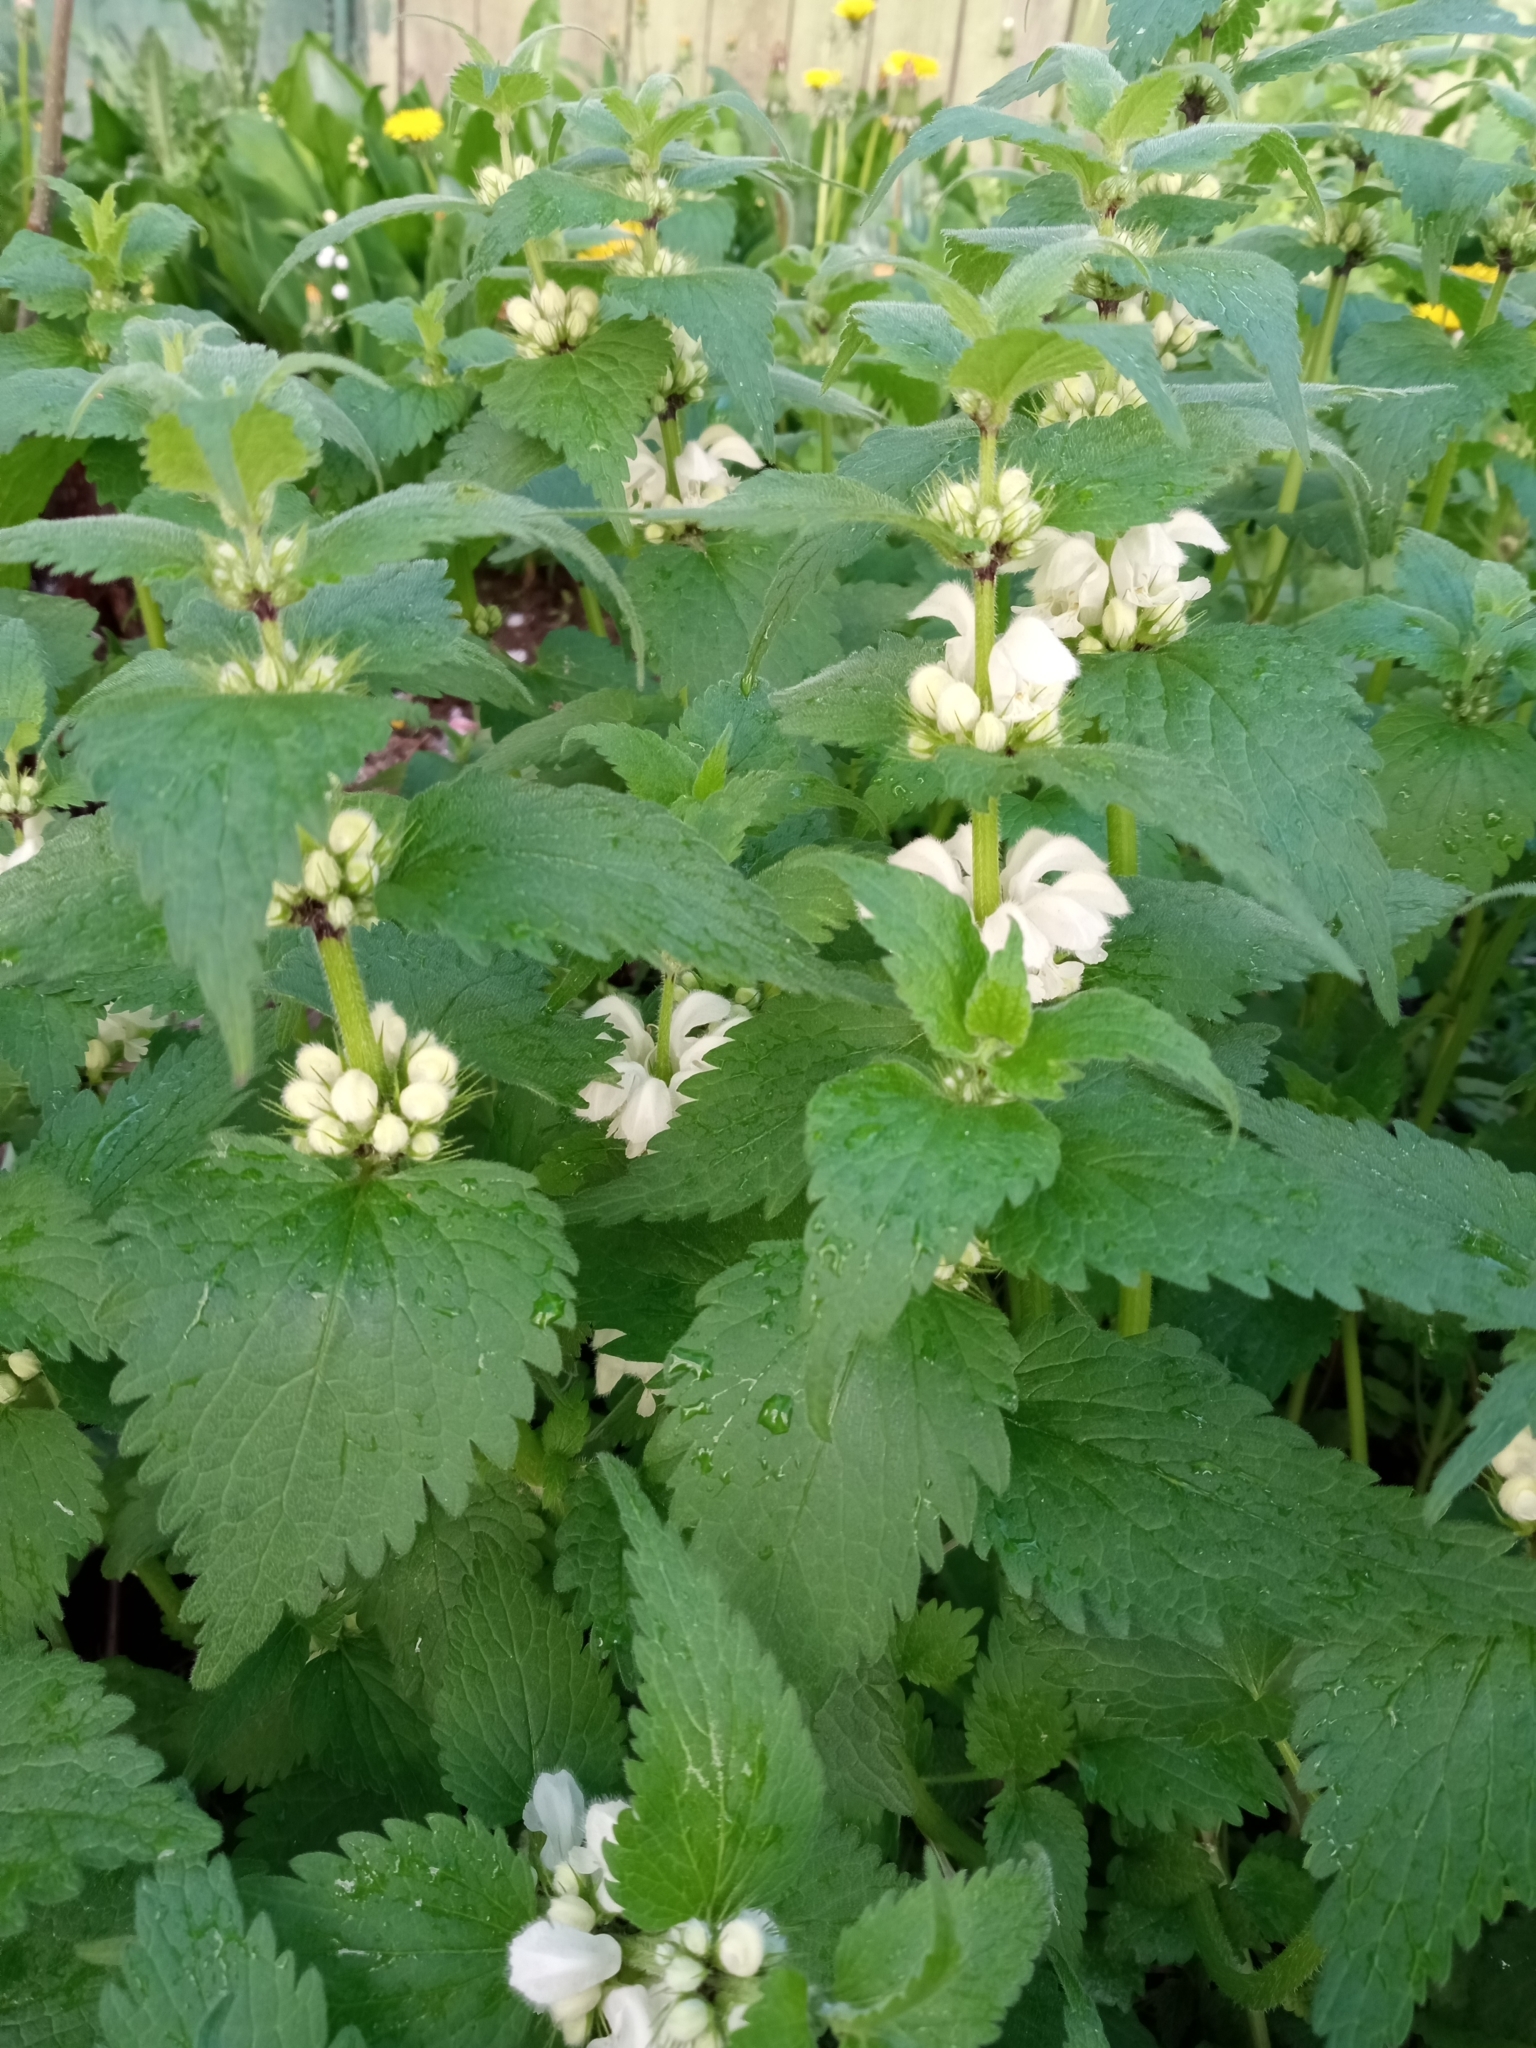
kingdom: Plantae
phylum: Tracheophyta
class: Magnoliopsida
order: Lamiales
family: Lamiaceae
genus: Lamium
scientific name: Lamium album
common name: White dead-nettle
